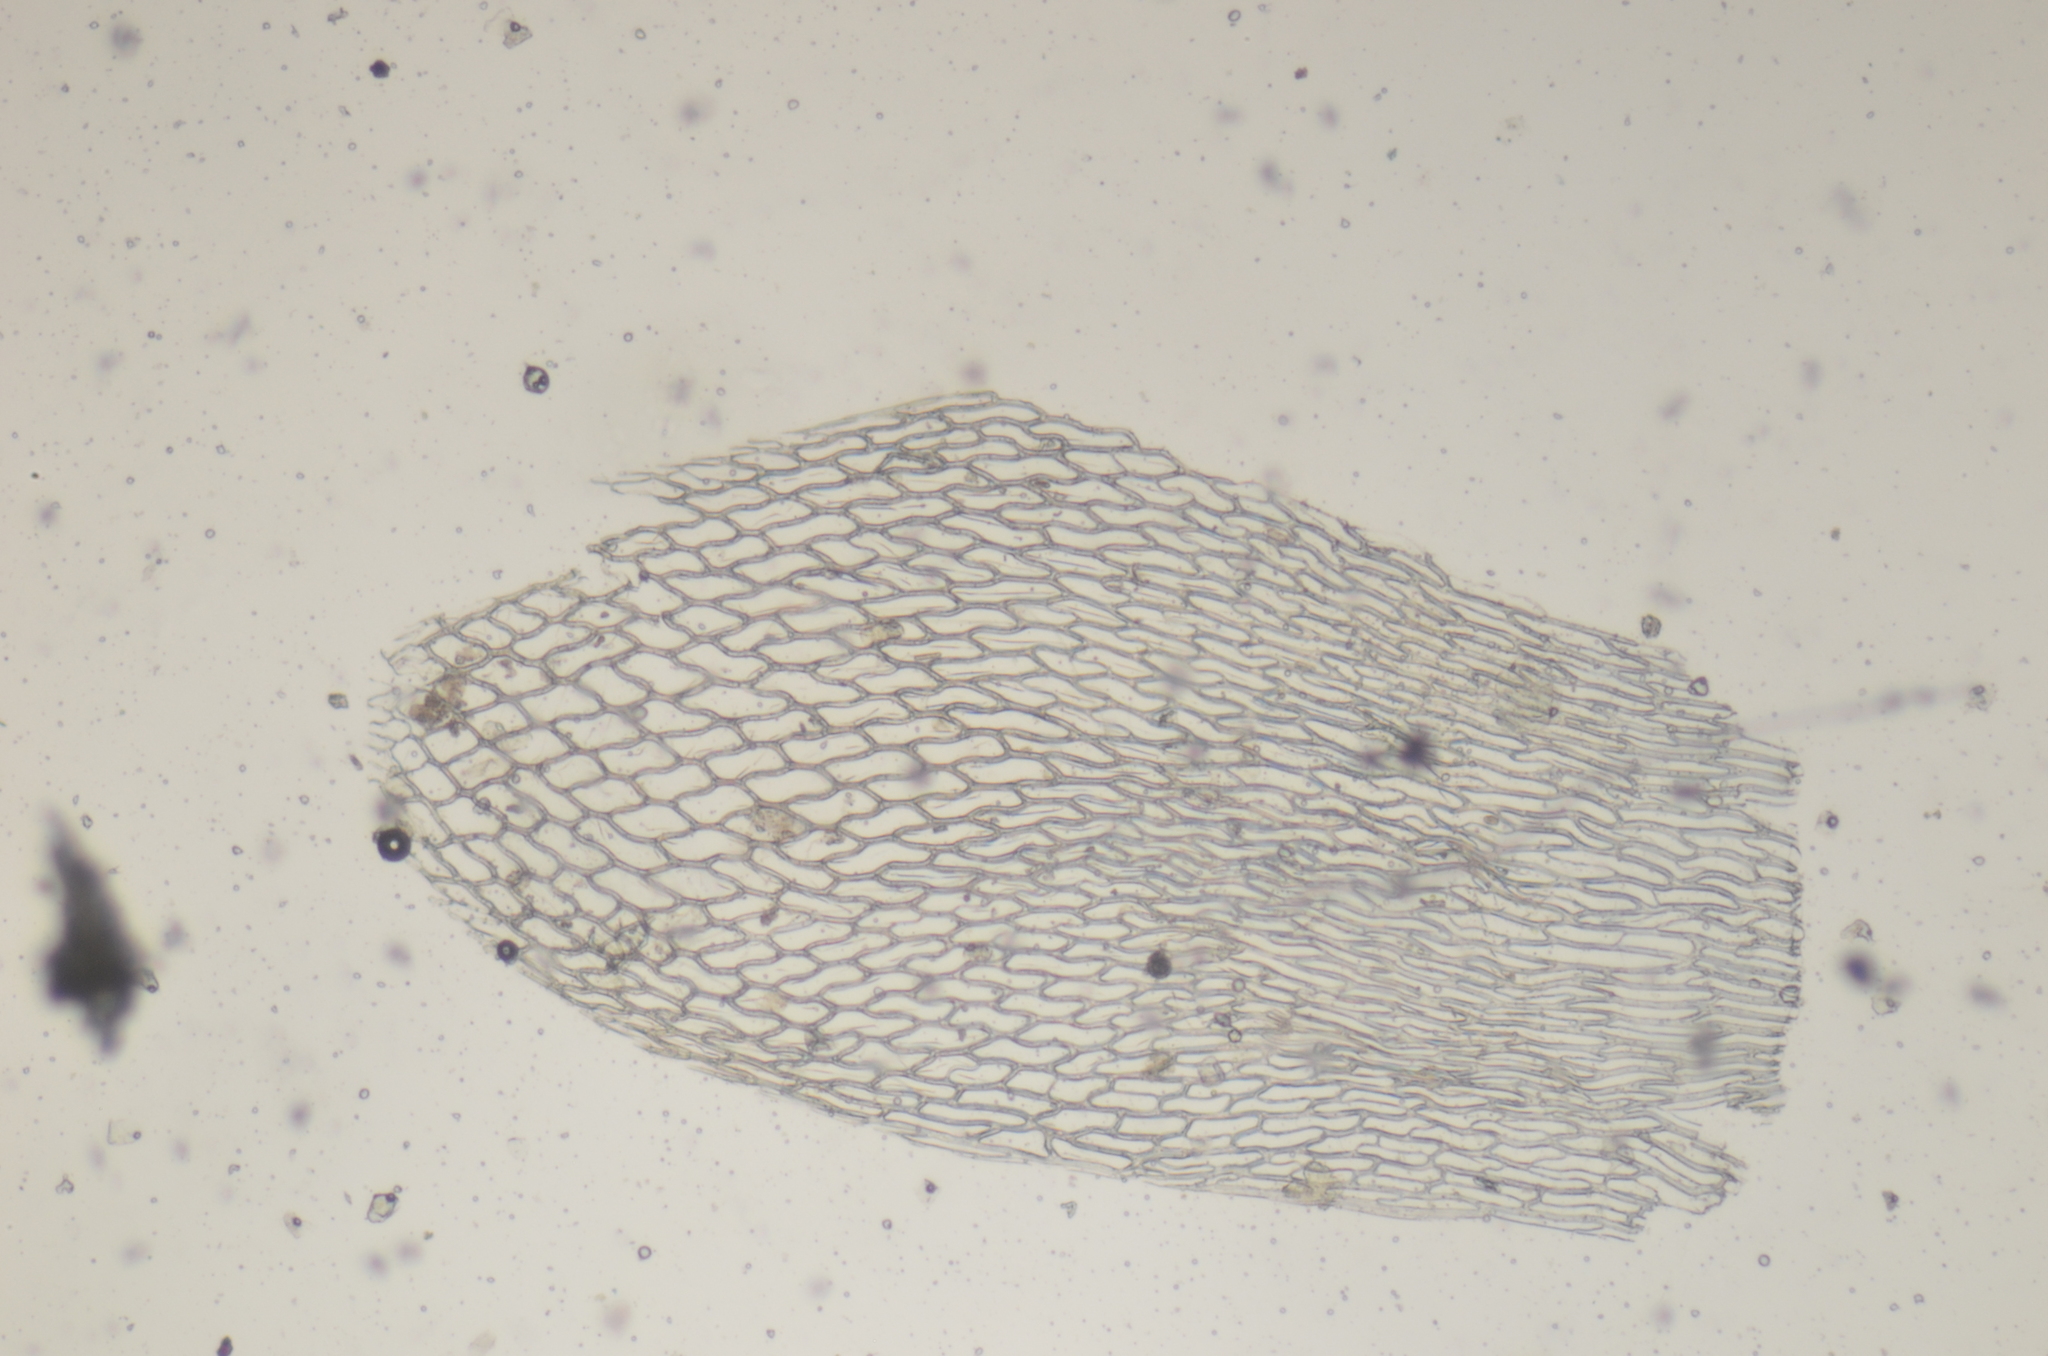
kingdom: Plantae
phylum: Bryophyta
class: Sphagnopsida
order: Sphagnales
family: Sphagnaceae
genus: Sphagnum
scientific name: Sphagnum teres
